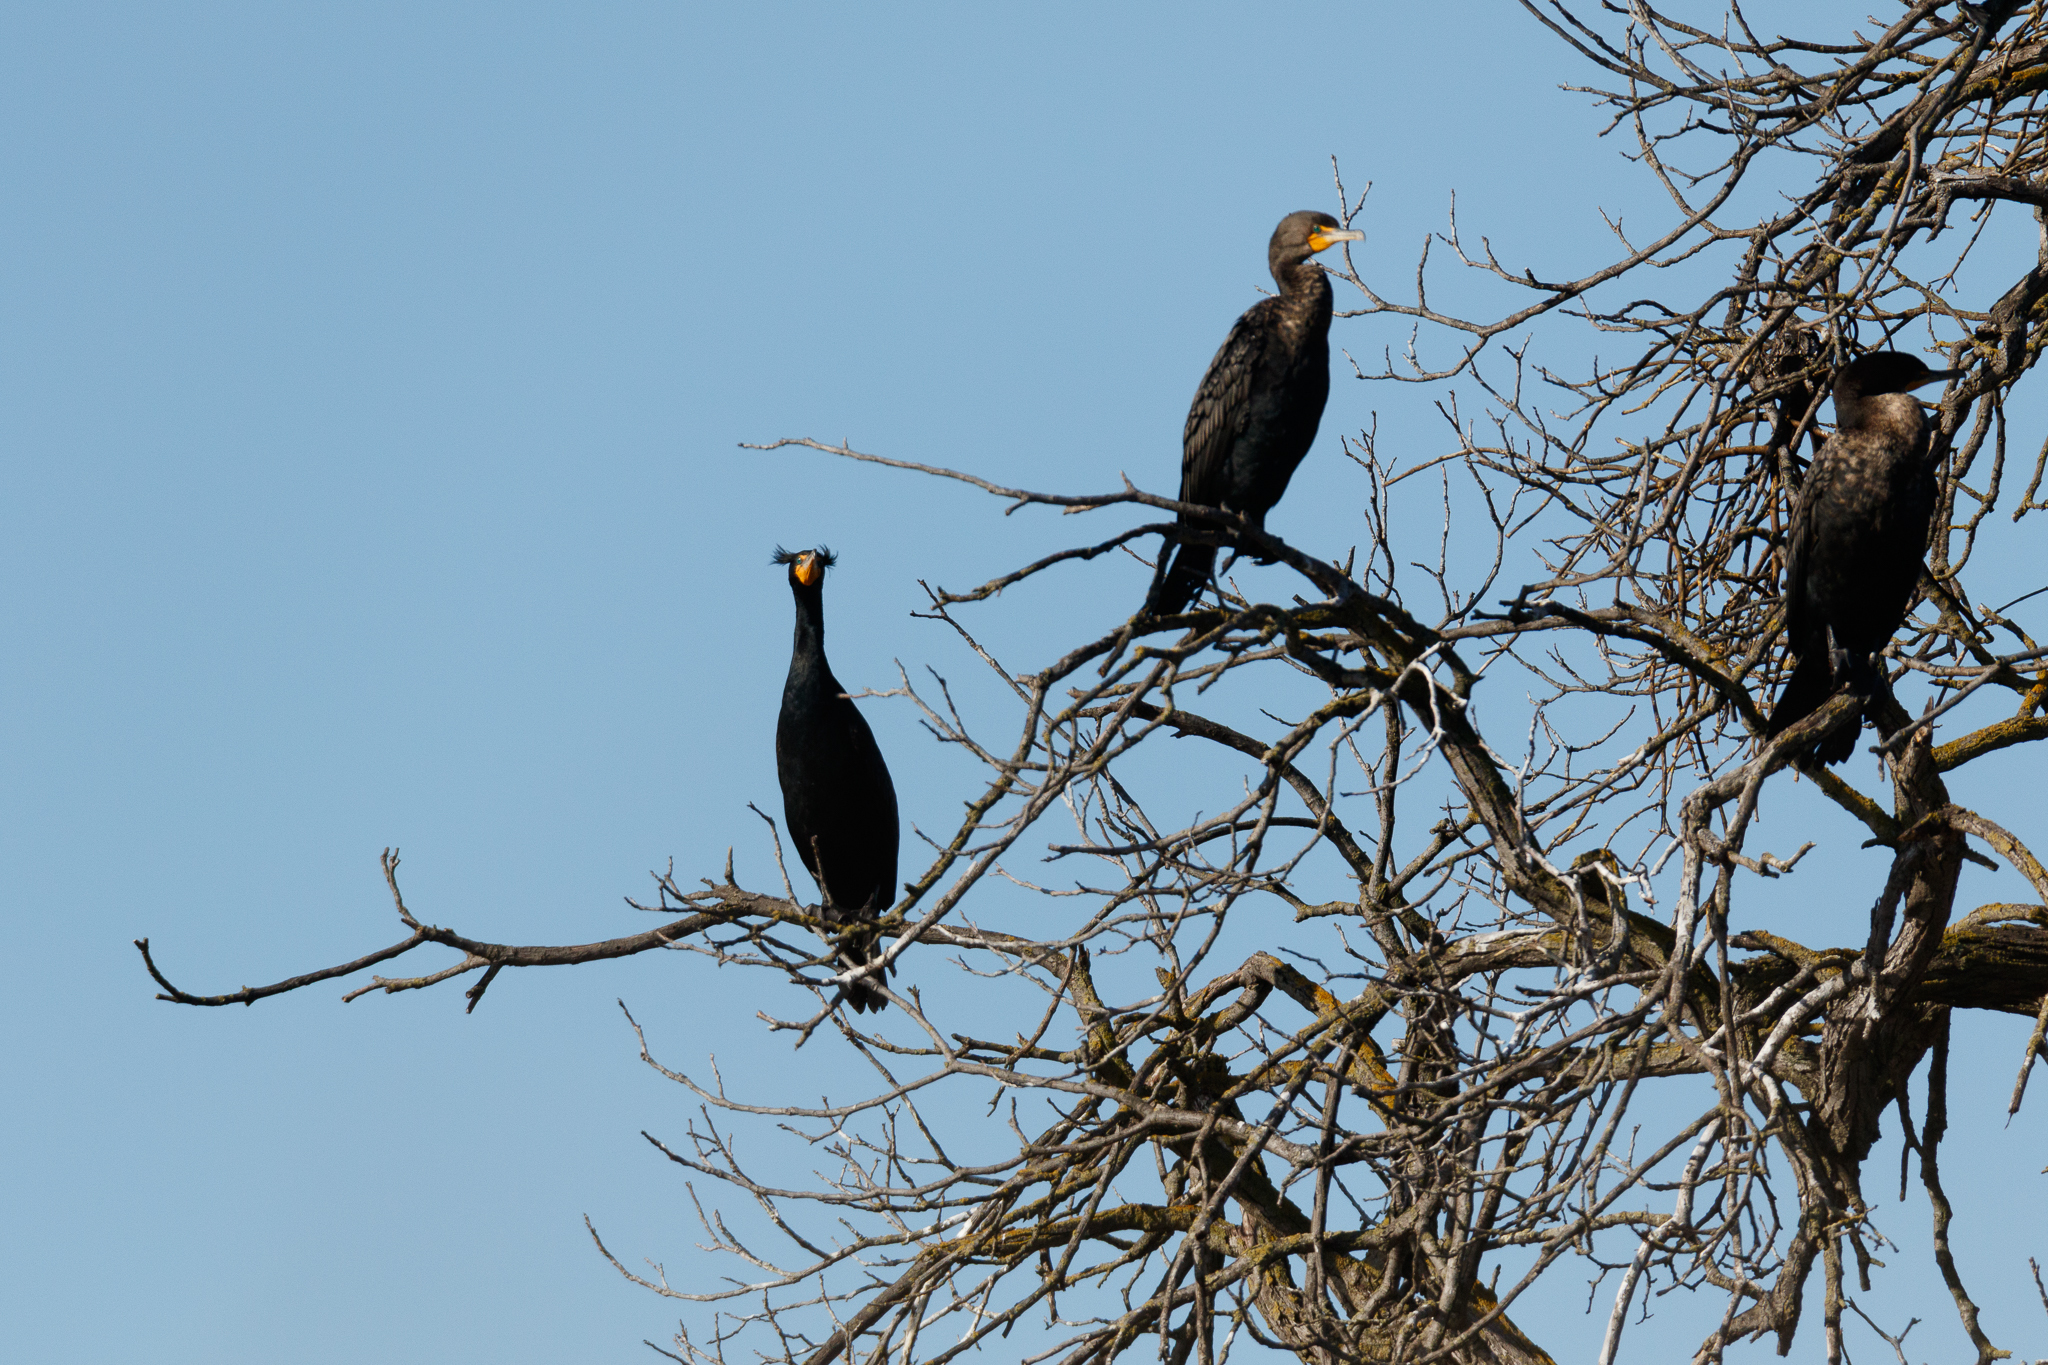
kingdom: Animalia
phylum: Chordata
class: Aves
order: Suliformes
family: Phalacrocoracidae
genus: Phalacrocorax
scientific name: Phalacrocorax auritus
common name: Double-crested cormorant
